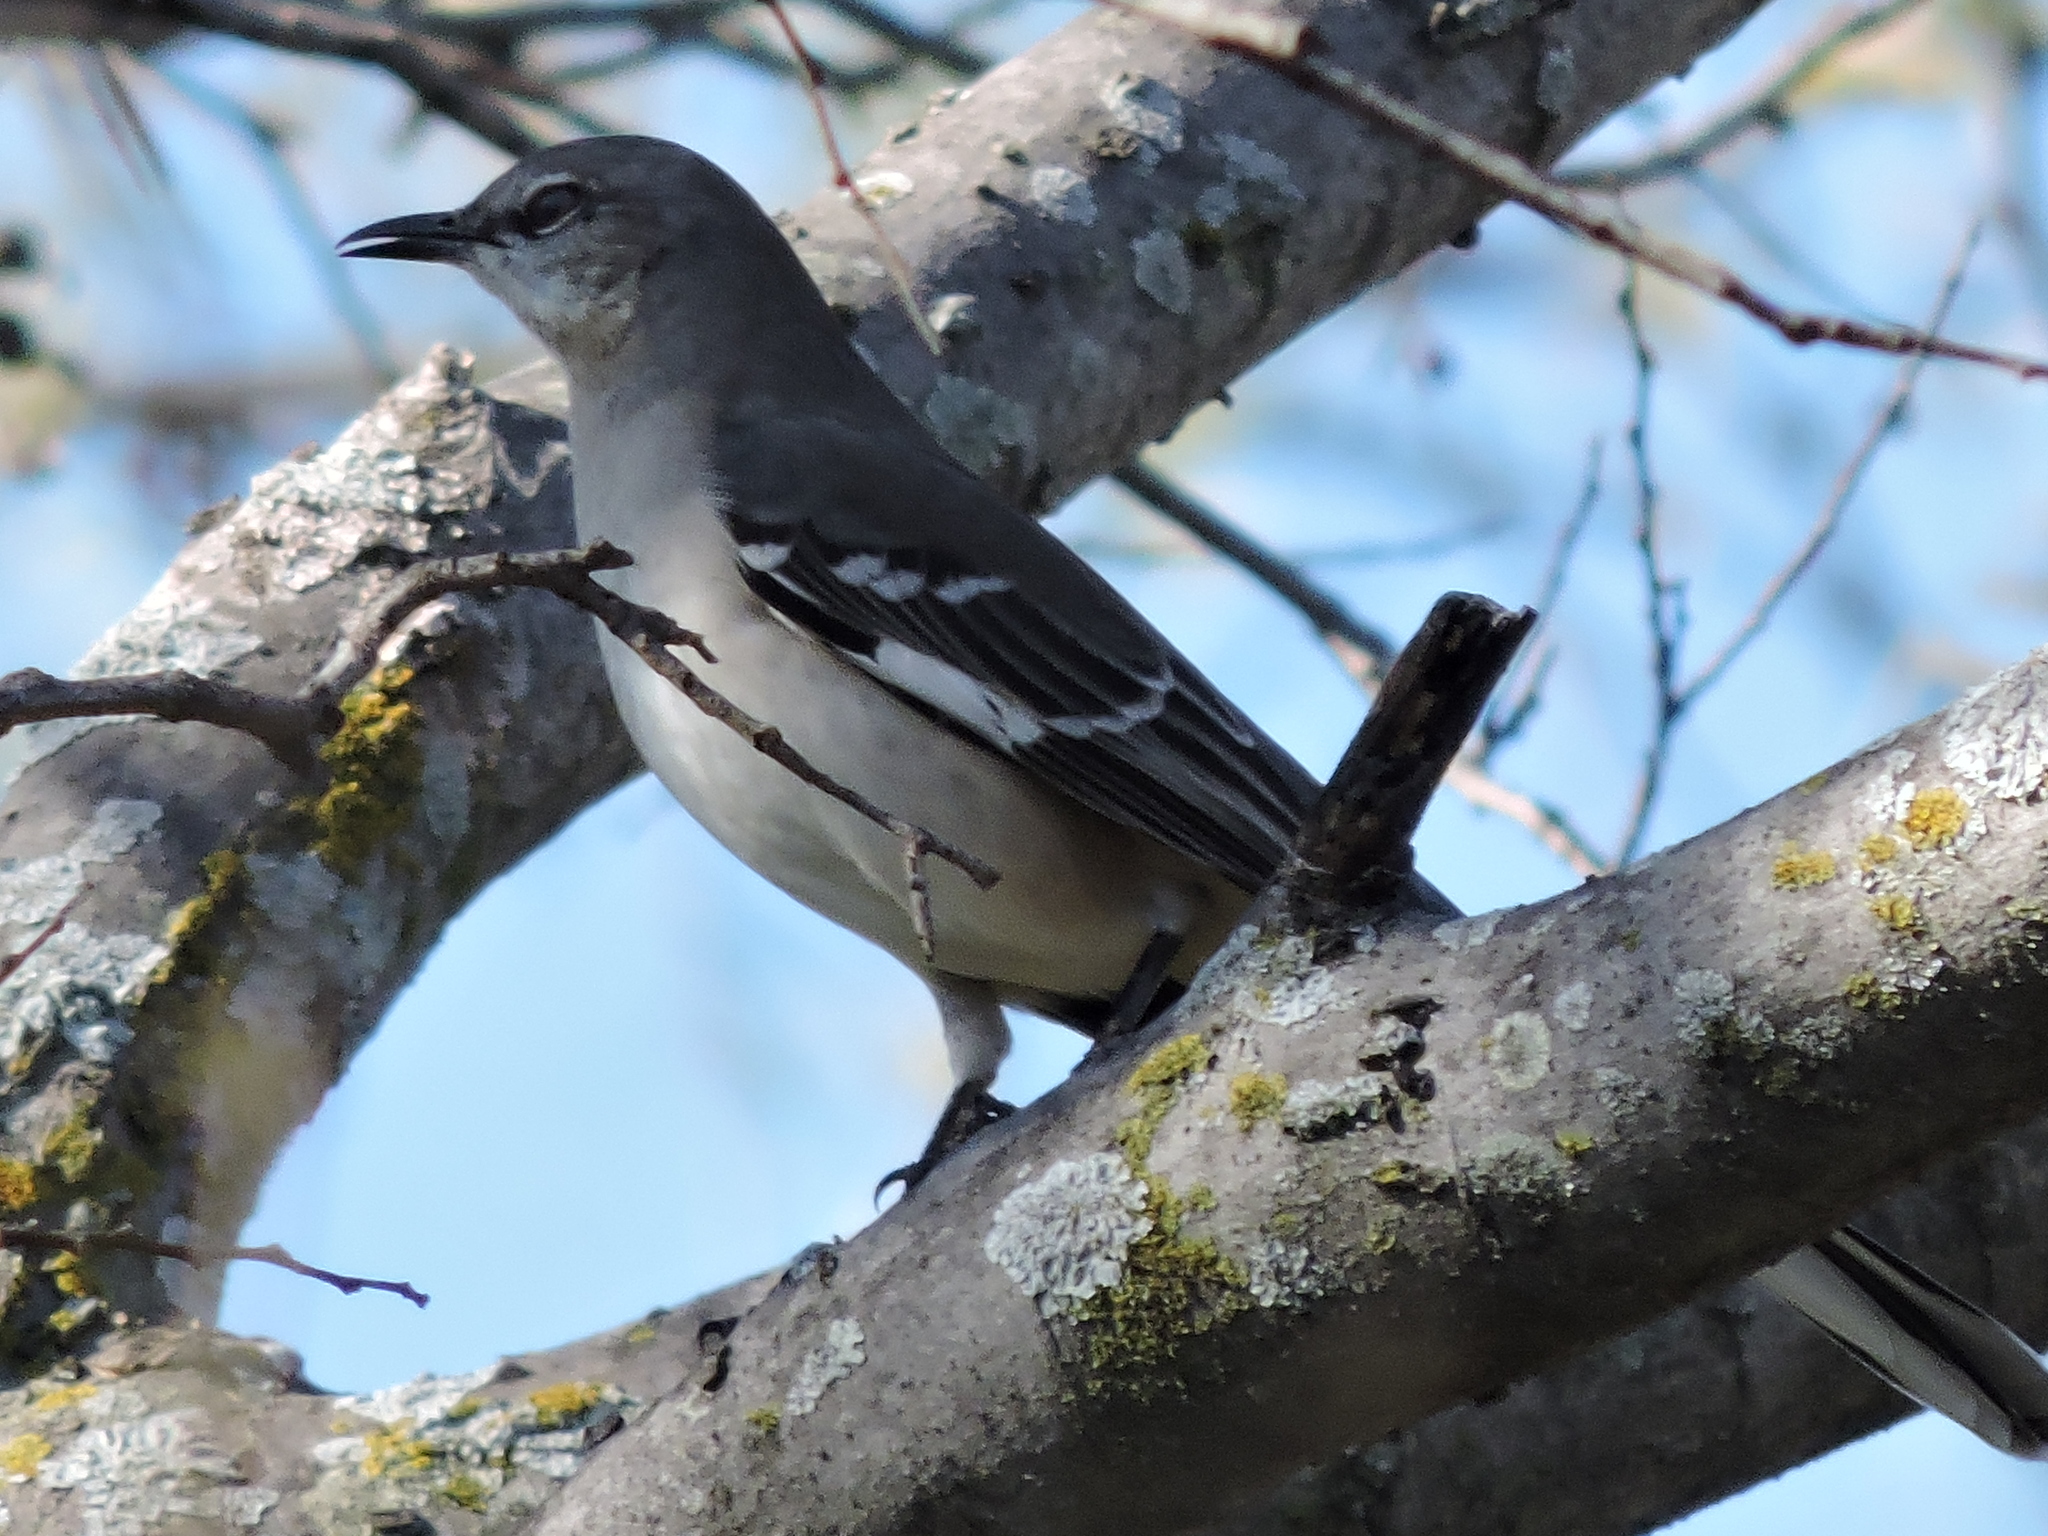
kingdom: Animalia
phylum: Chordata
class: Aves
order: Passeriformes
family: Mimidae
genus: Mimus
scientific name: Mimus polyglottos
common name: Northern mockingbird
